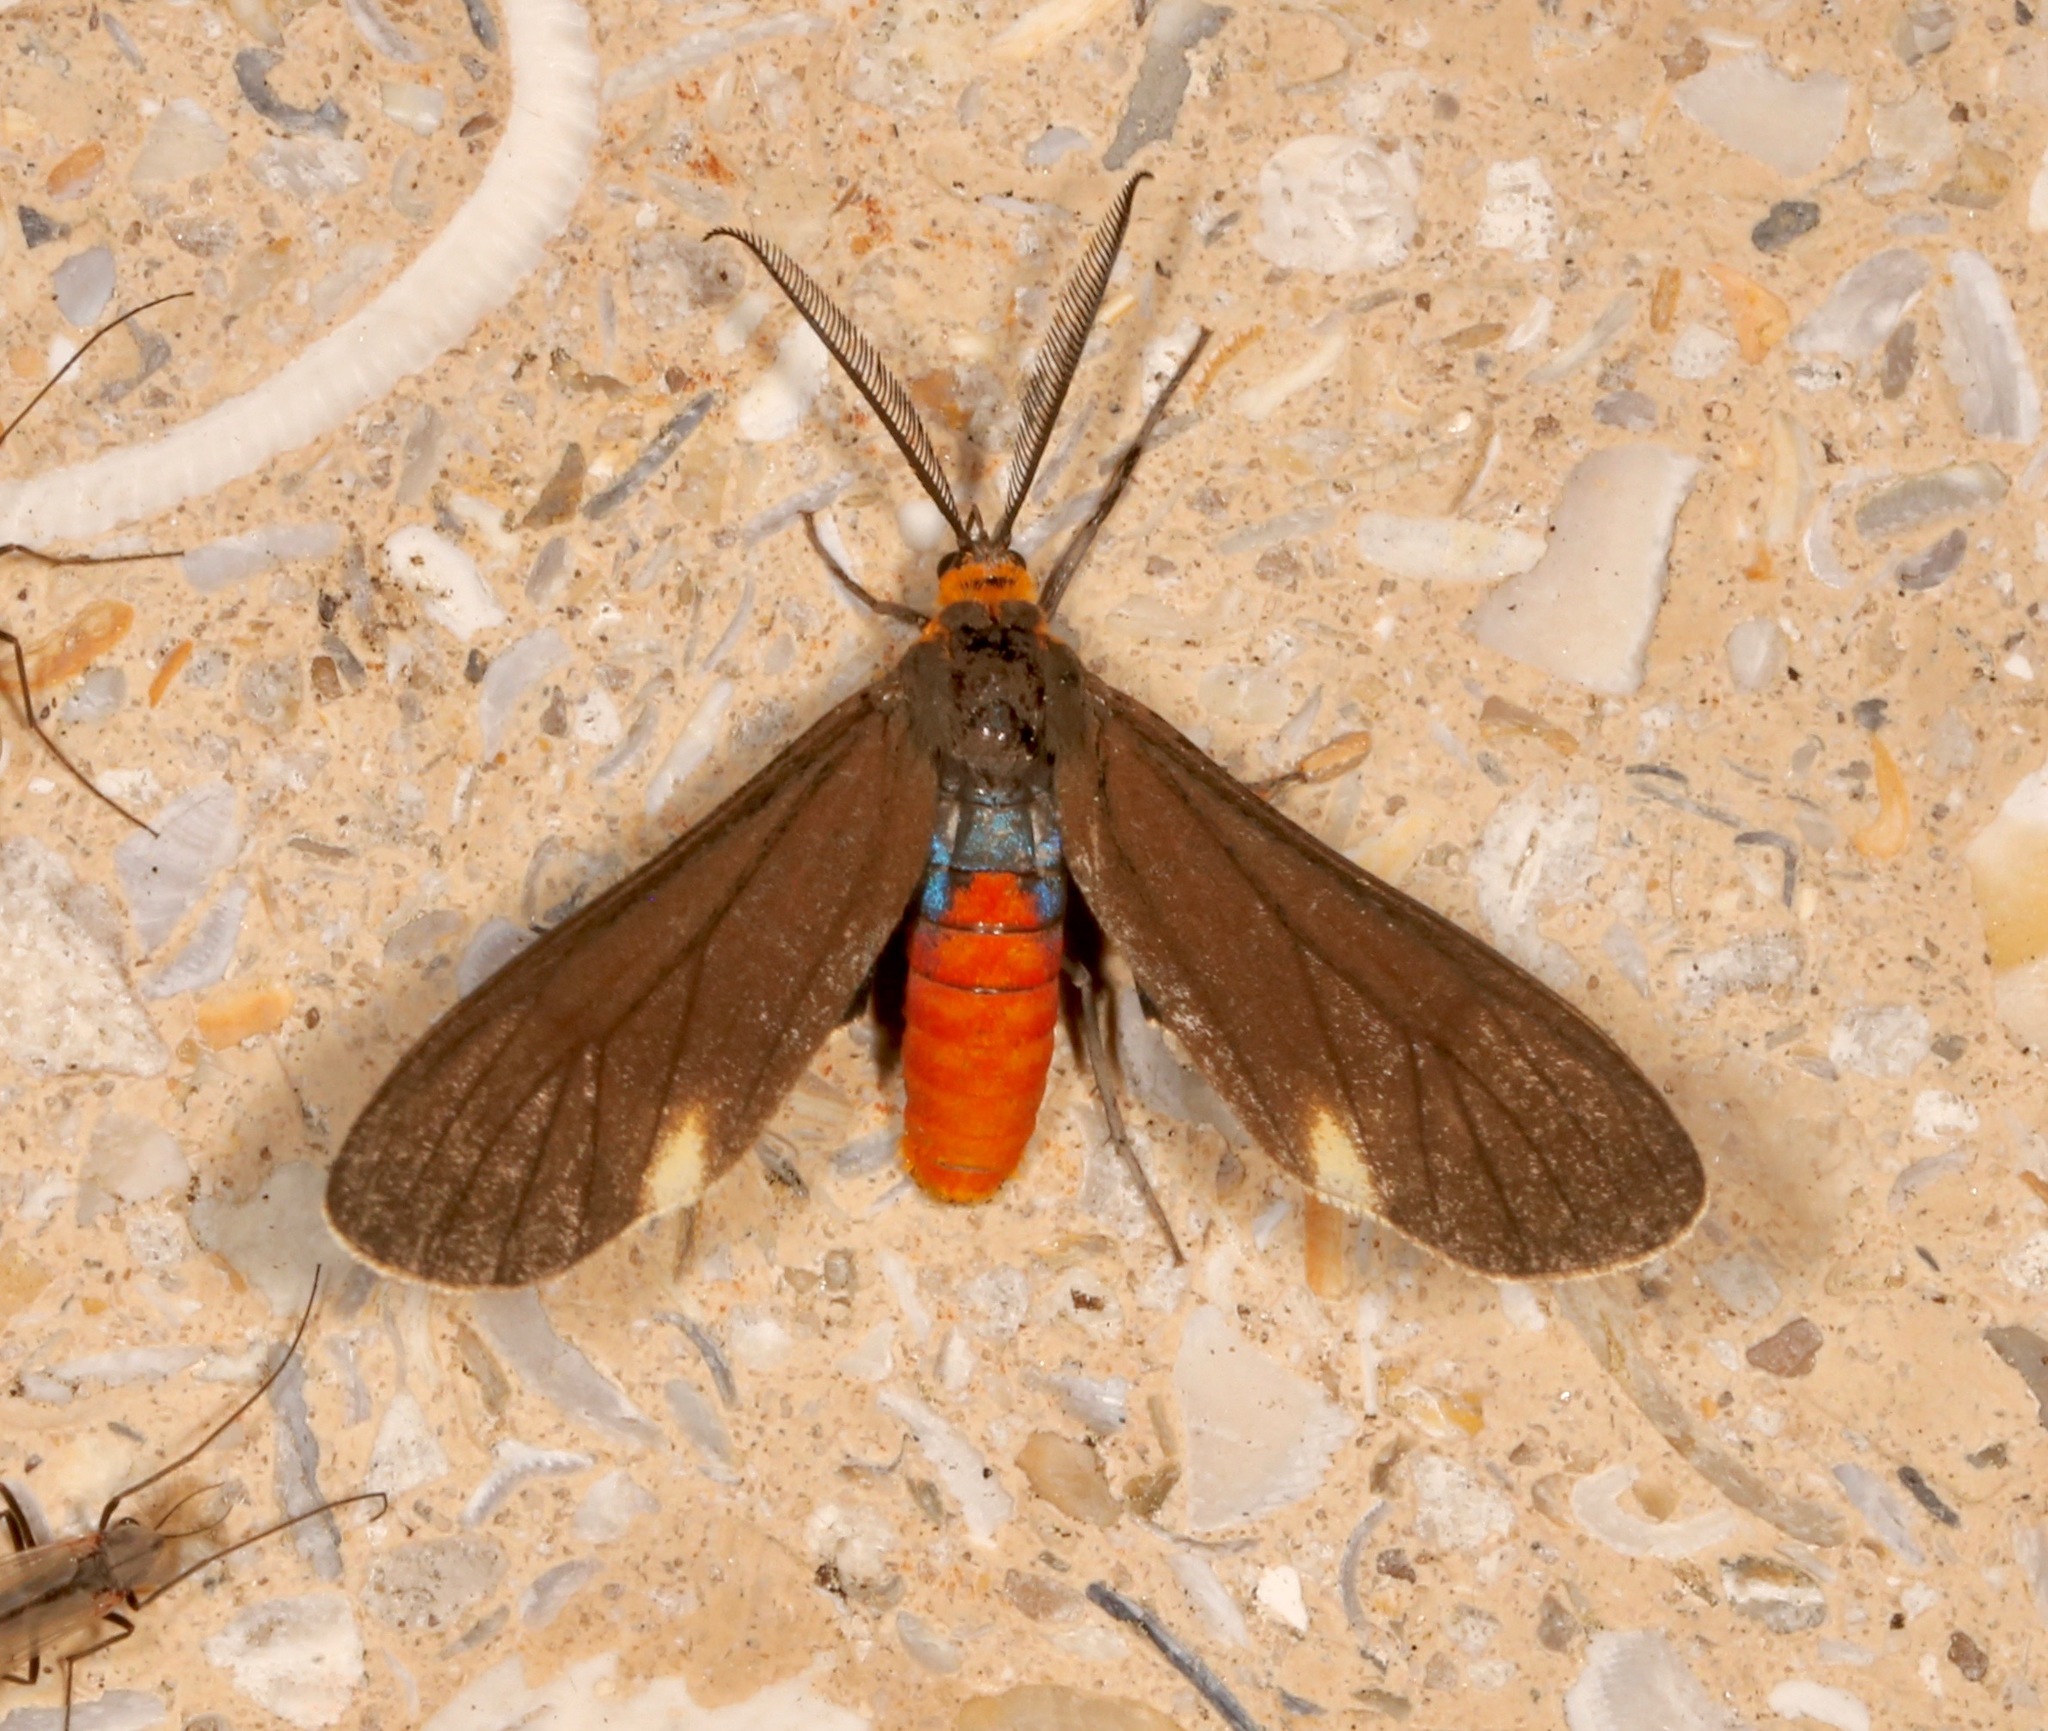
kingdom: Animalia
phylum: Arthropoda
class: Insecta
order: Lepidoptera
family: Erebidae
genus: Dahana
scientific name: Dahana atripennis
